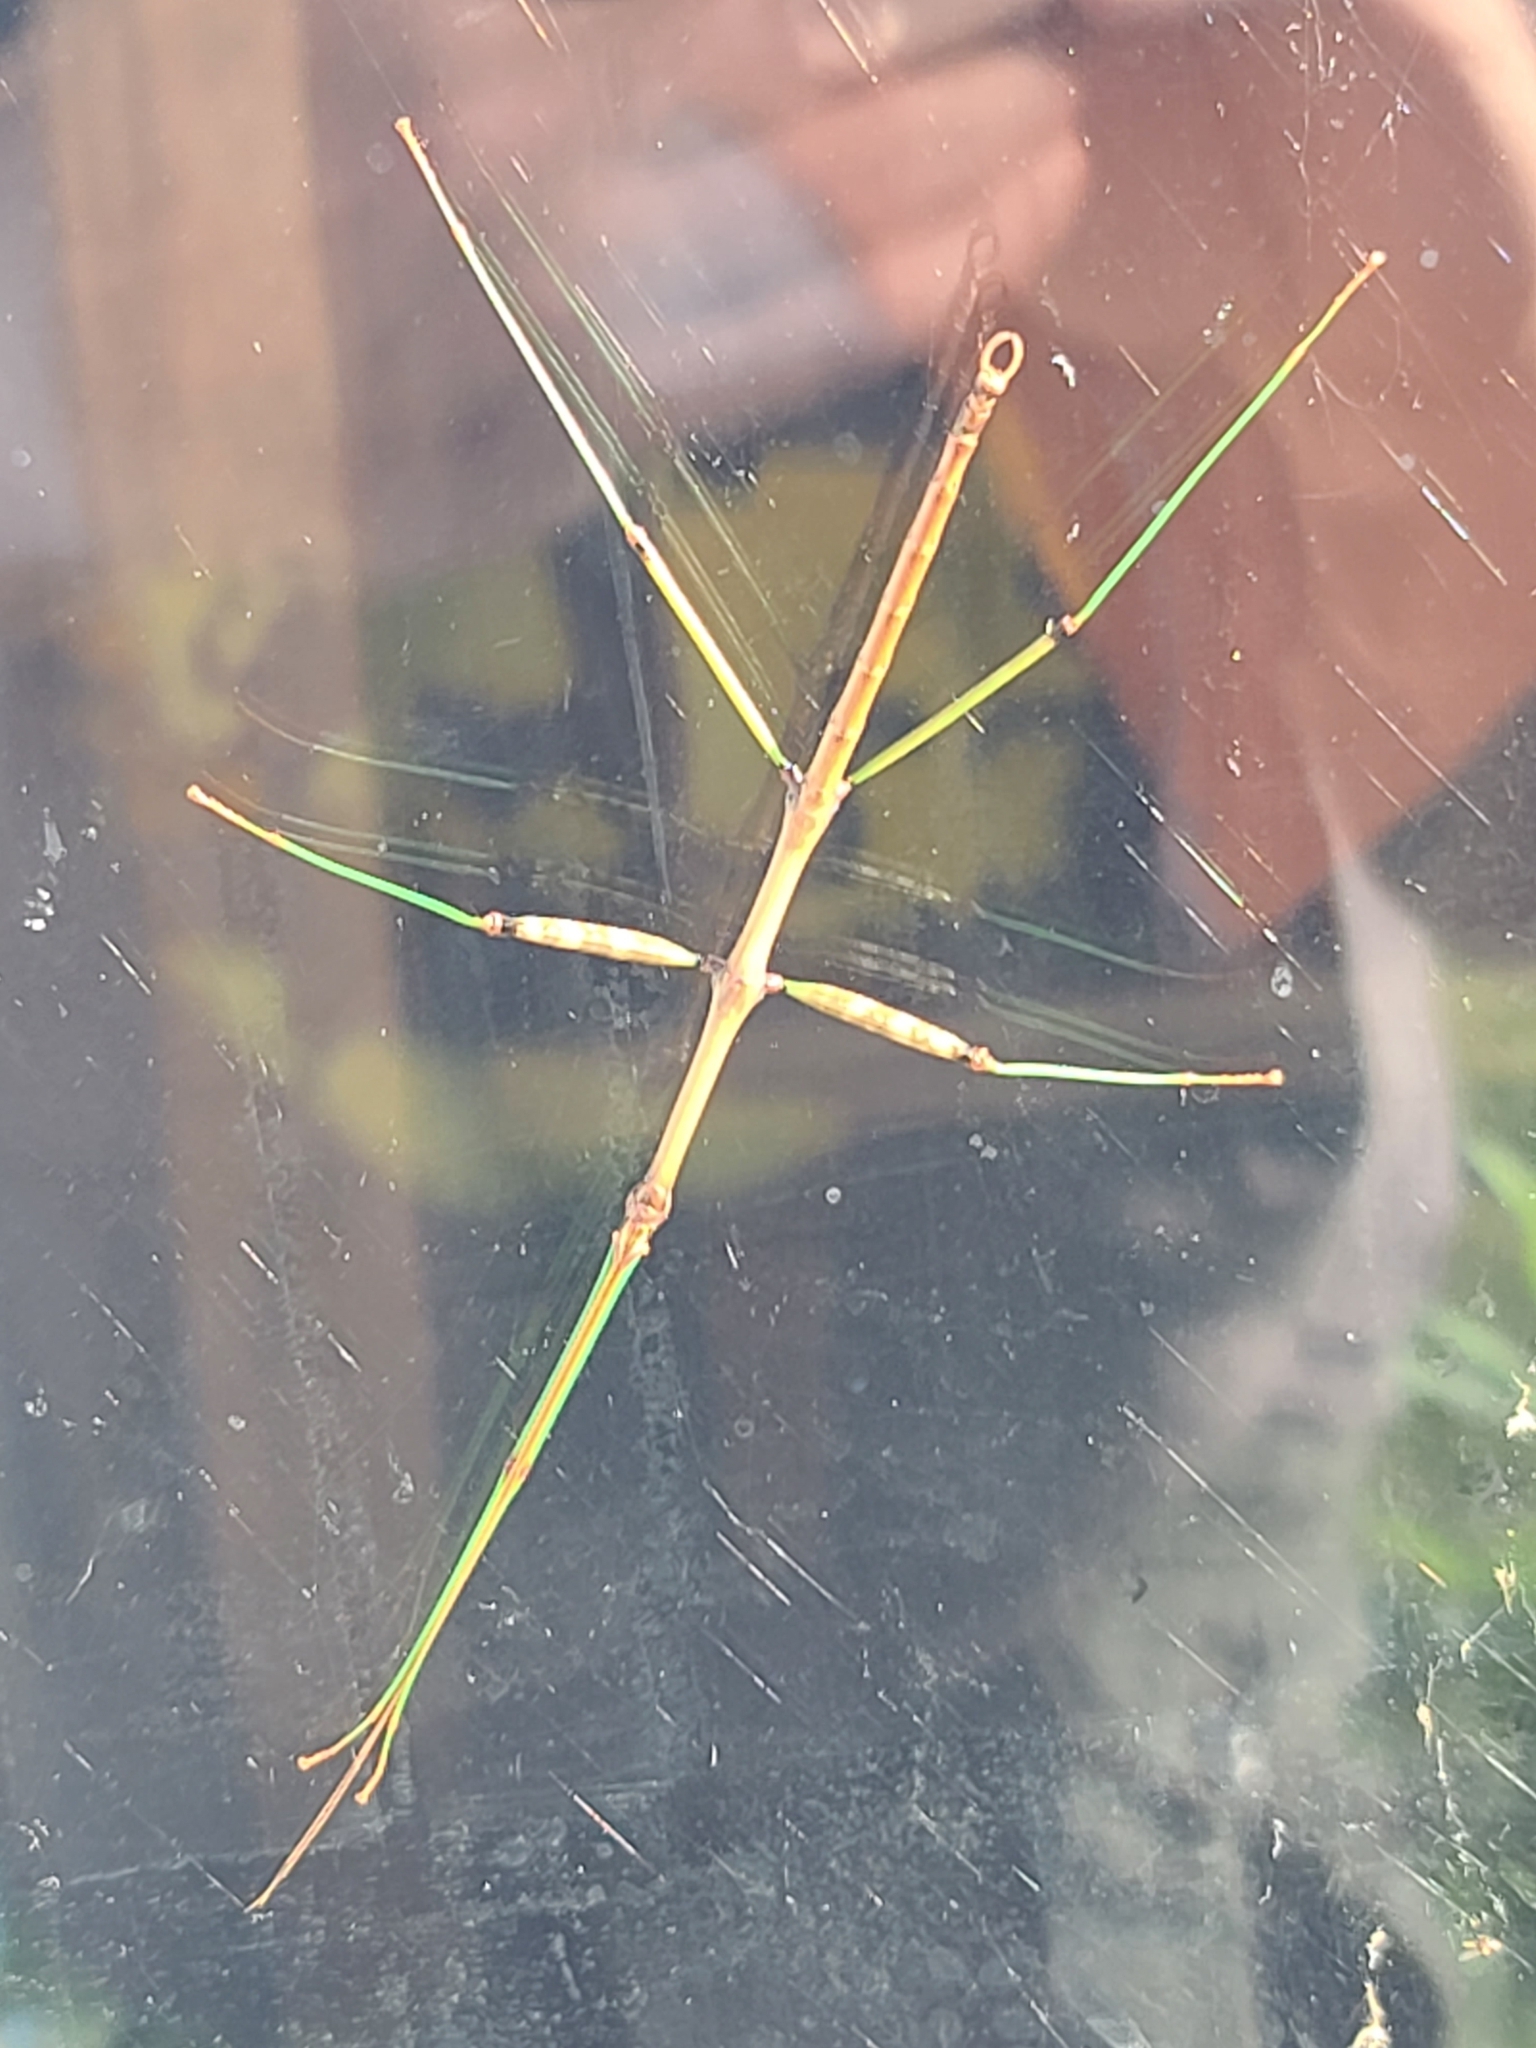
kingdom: Animalia
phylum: Arthropoda
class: Insecta
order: Phasmida
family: Diapheromeridae
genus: Diapheromera
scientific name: Diapheromera femorata
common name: Common american walkingstick
